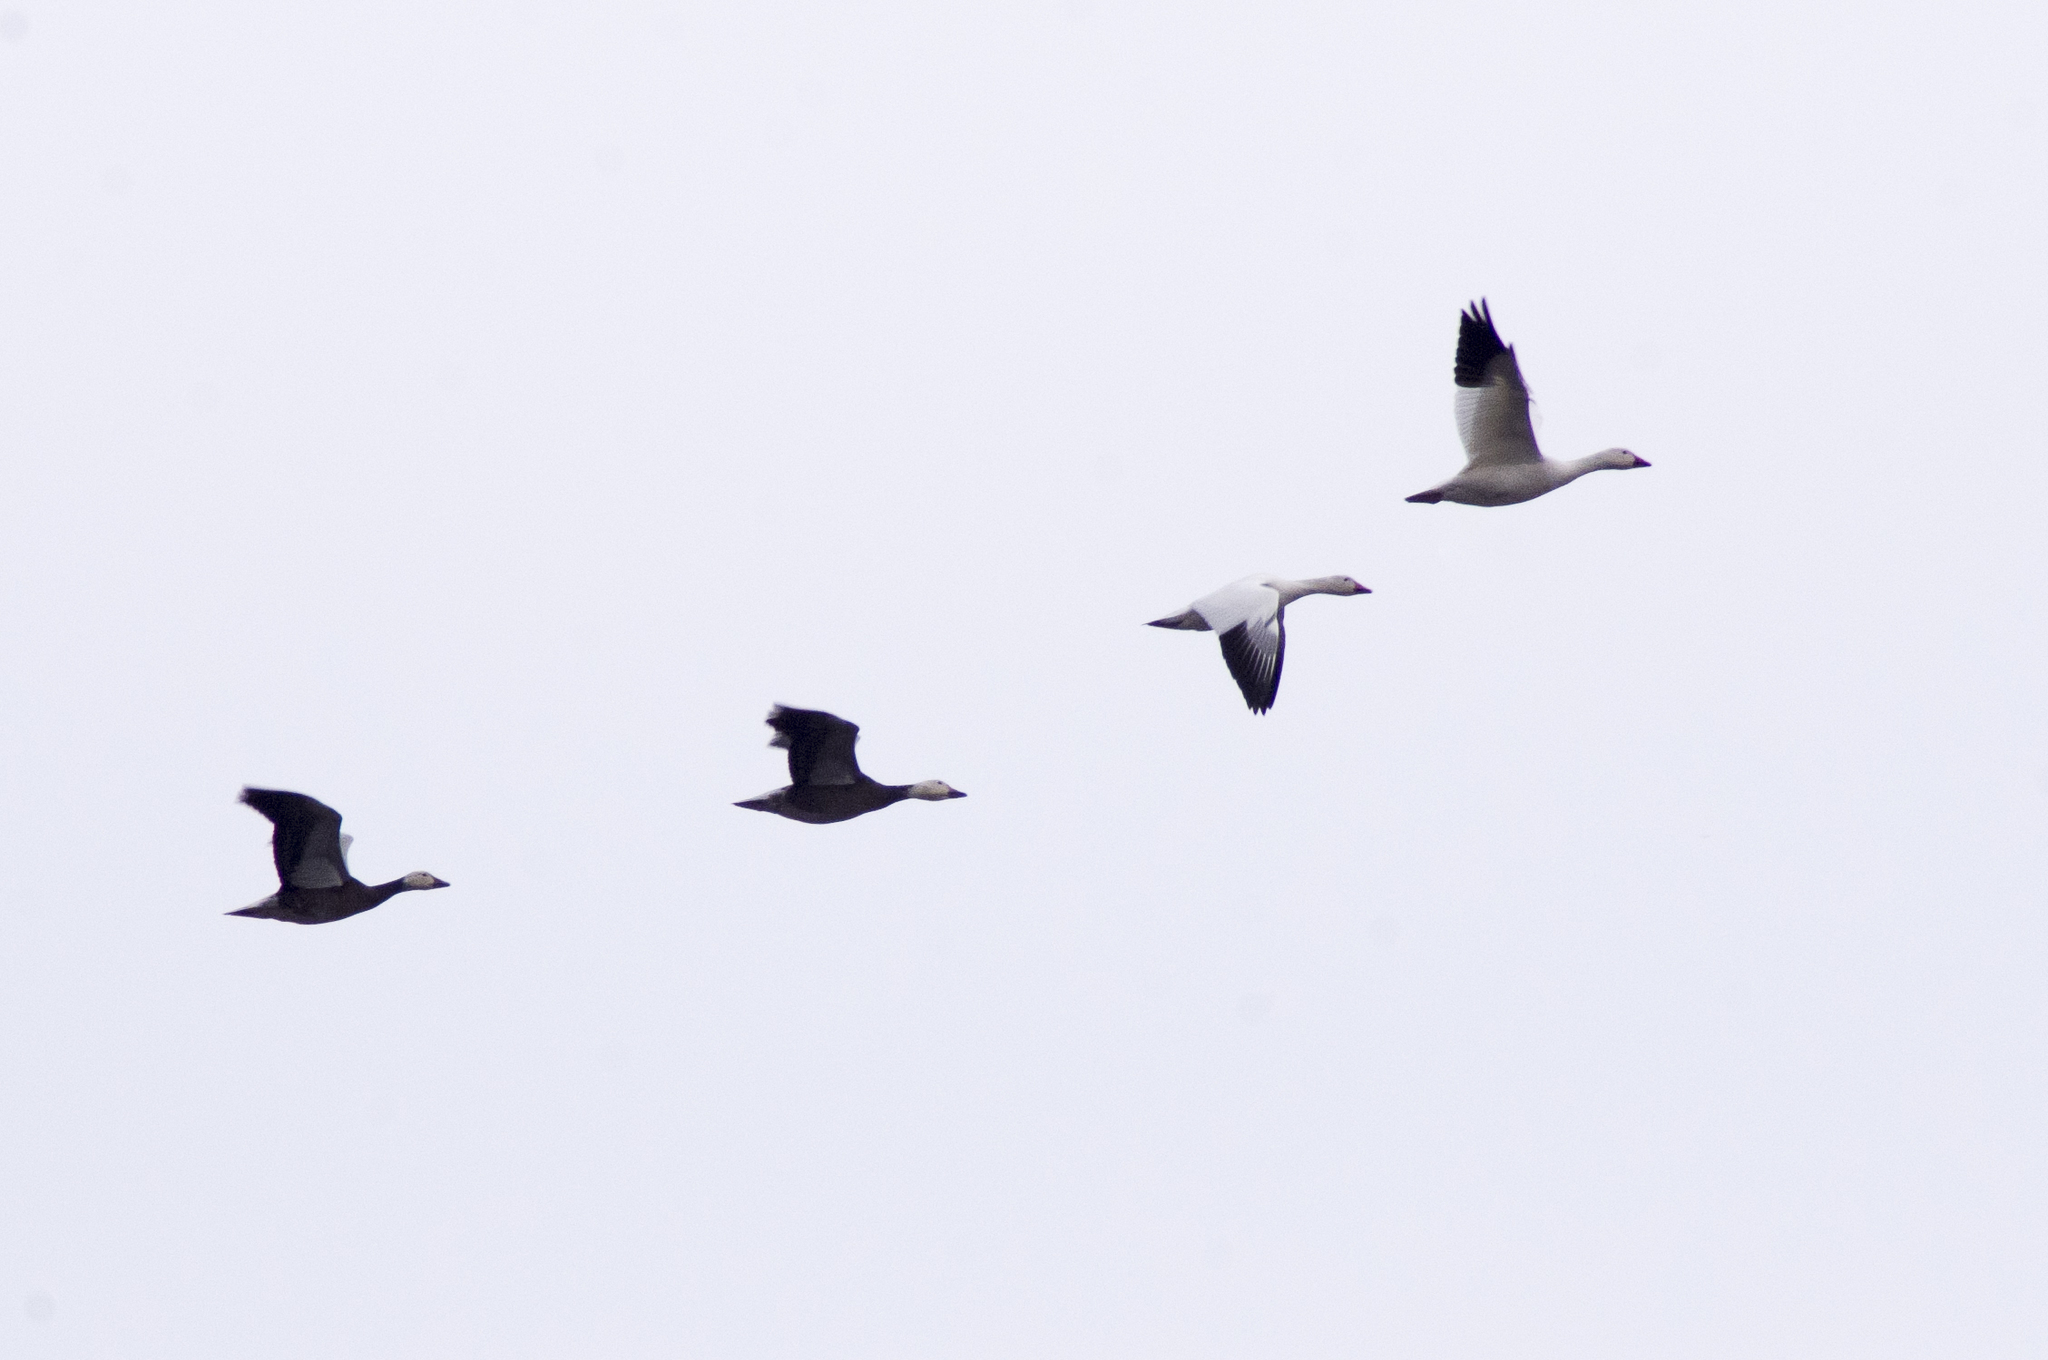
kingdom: Animalia
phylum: Chordata
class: Aves
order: Anseriformes
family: Anatidae
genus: Anser
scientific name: Anser caerulescens
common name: Snow goose
